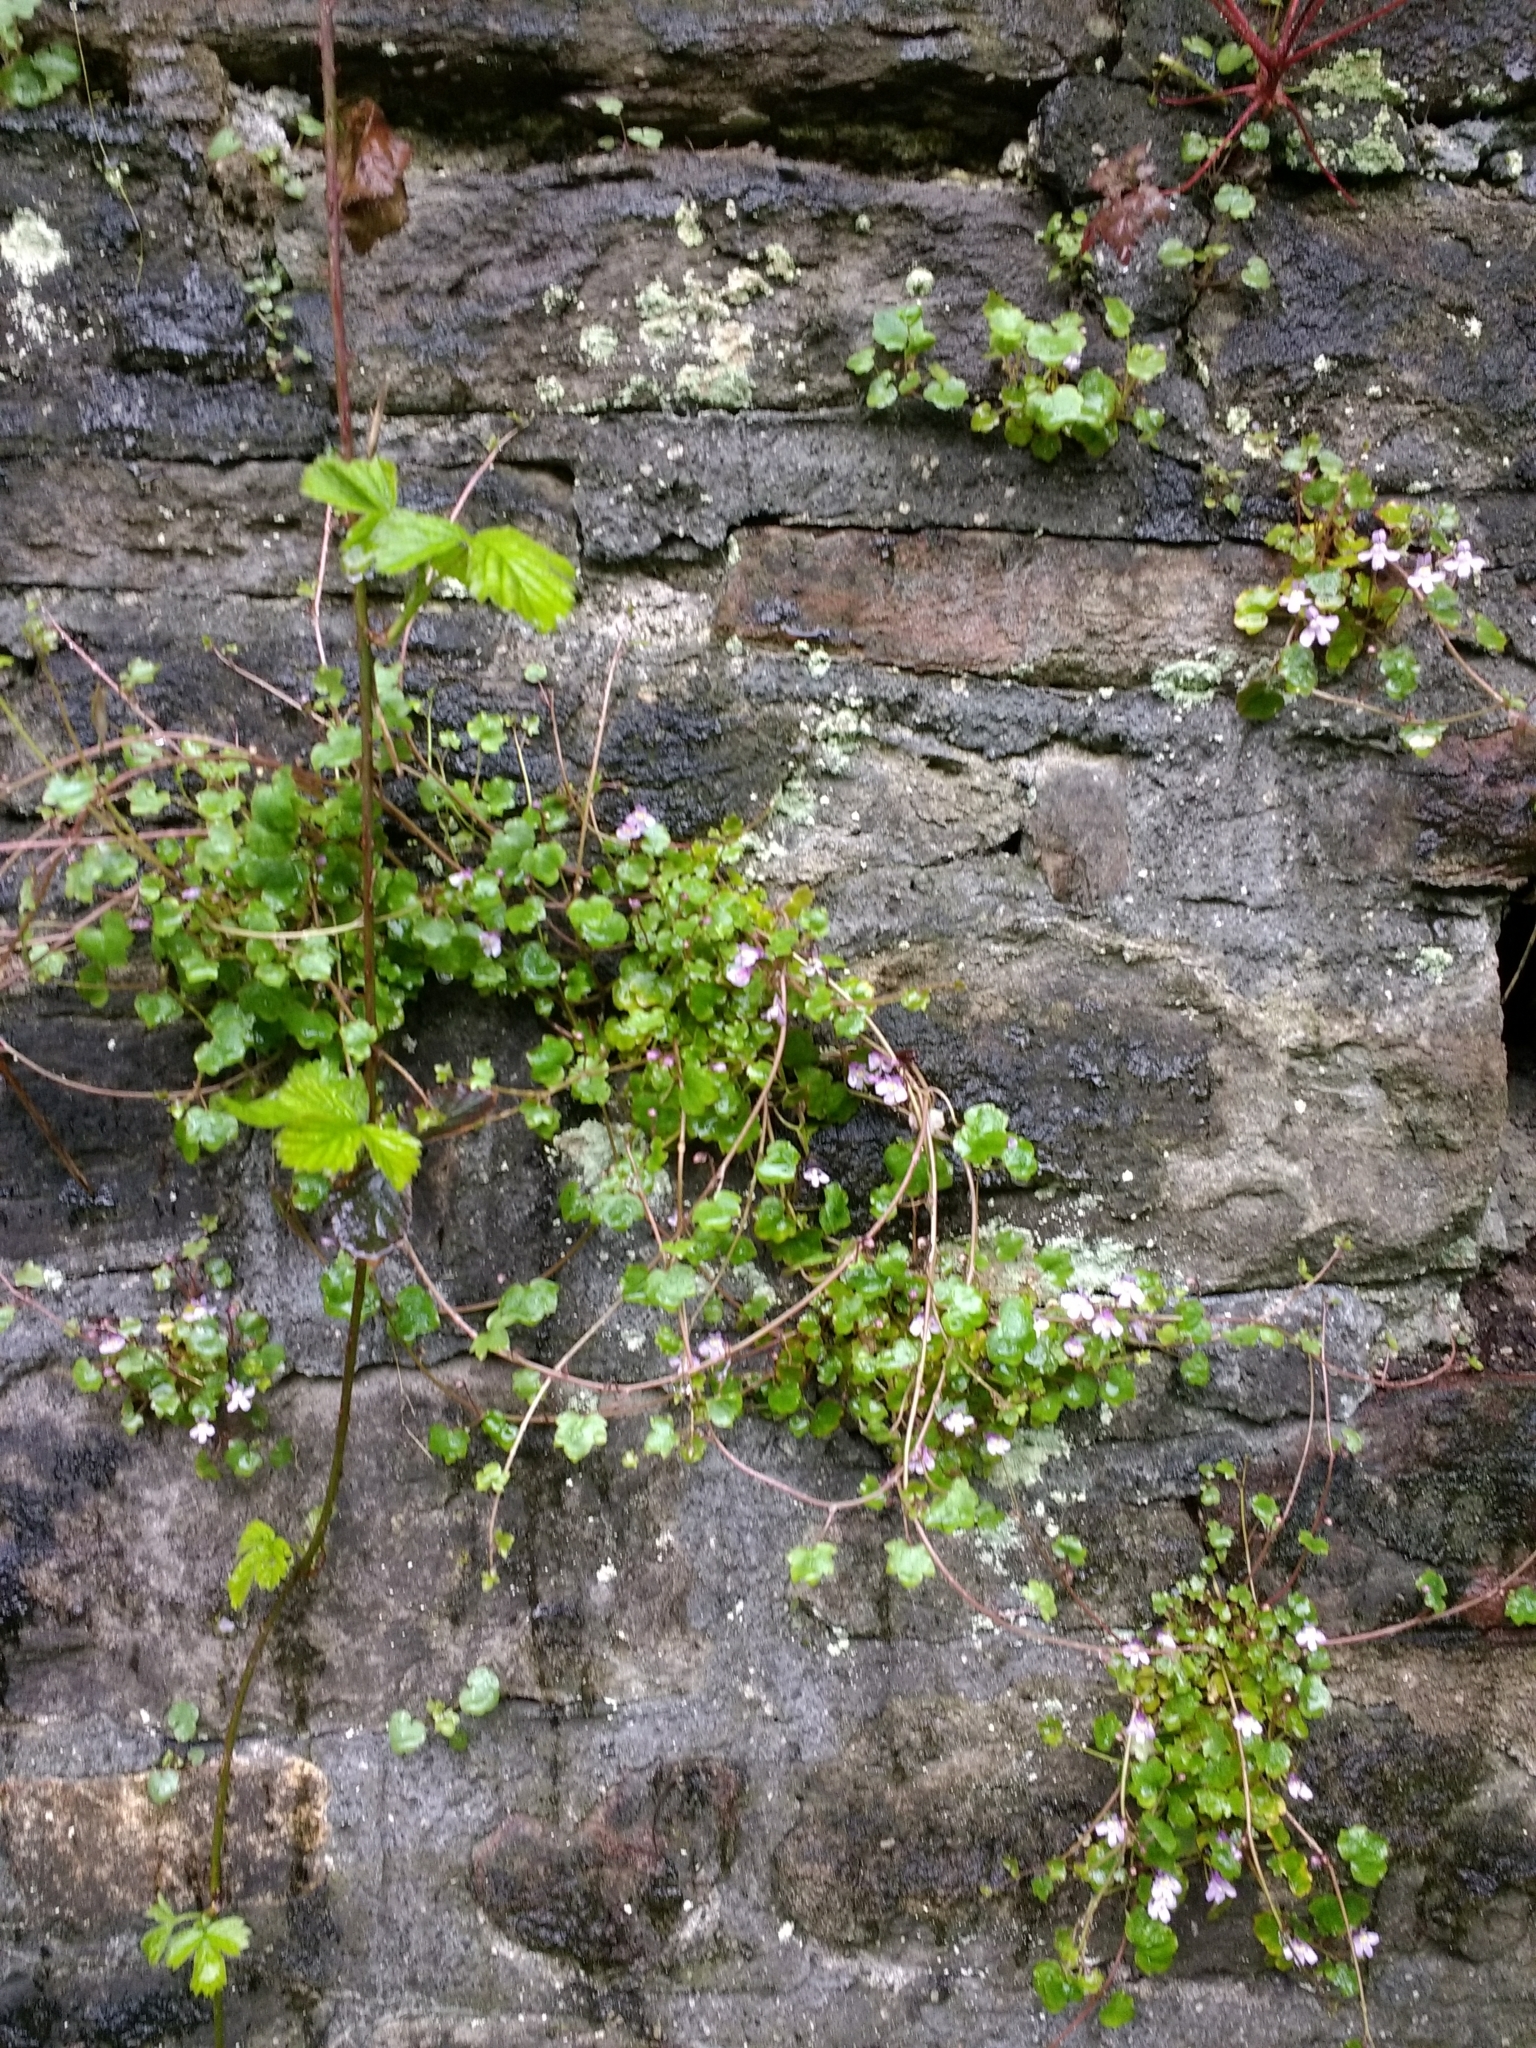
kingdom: Plantae
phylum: Tracheophyta
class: Magnoliopsida
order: Lamiales
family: Plantaginaceae
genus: Cymbalaria
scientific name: Cymbalaria muralis
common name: Ivy-leaved toadflax
